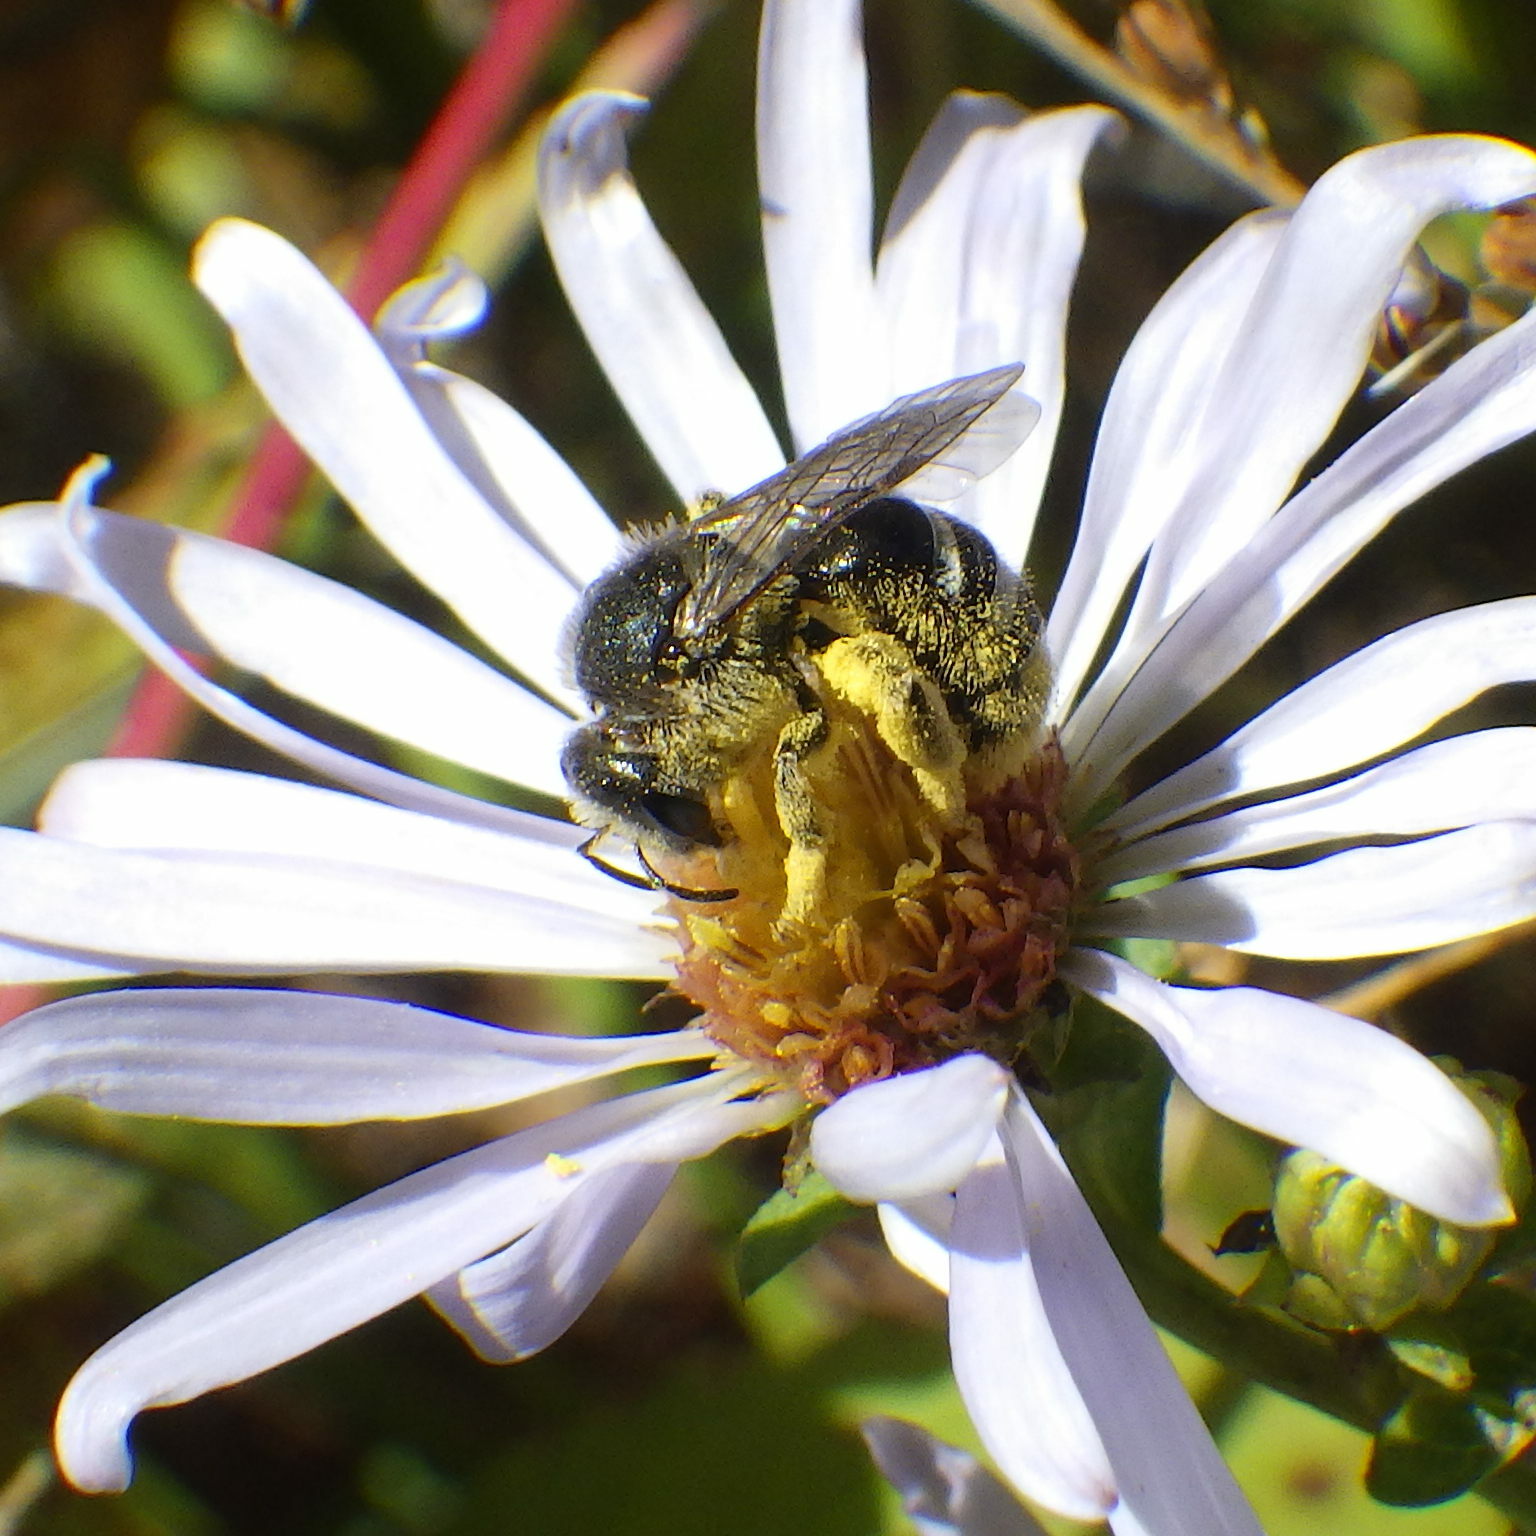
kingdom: Animalia
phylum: Arthropoda
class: Insecta
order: Hymenoptera
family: Halictidae
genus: Lasioglossum
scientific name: Lasioglossum leucozonium
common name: White-zoned furrow bee
